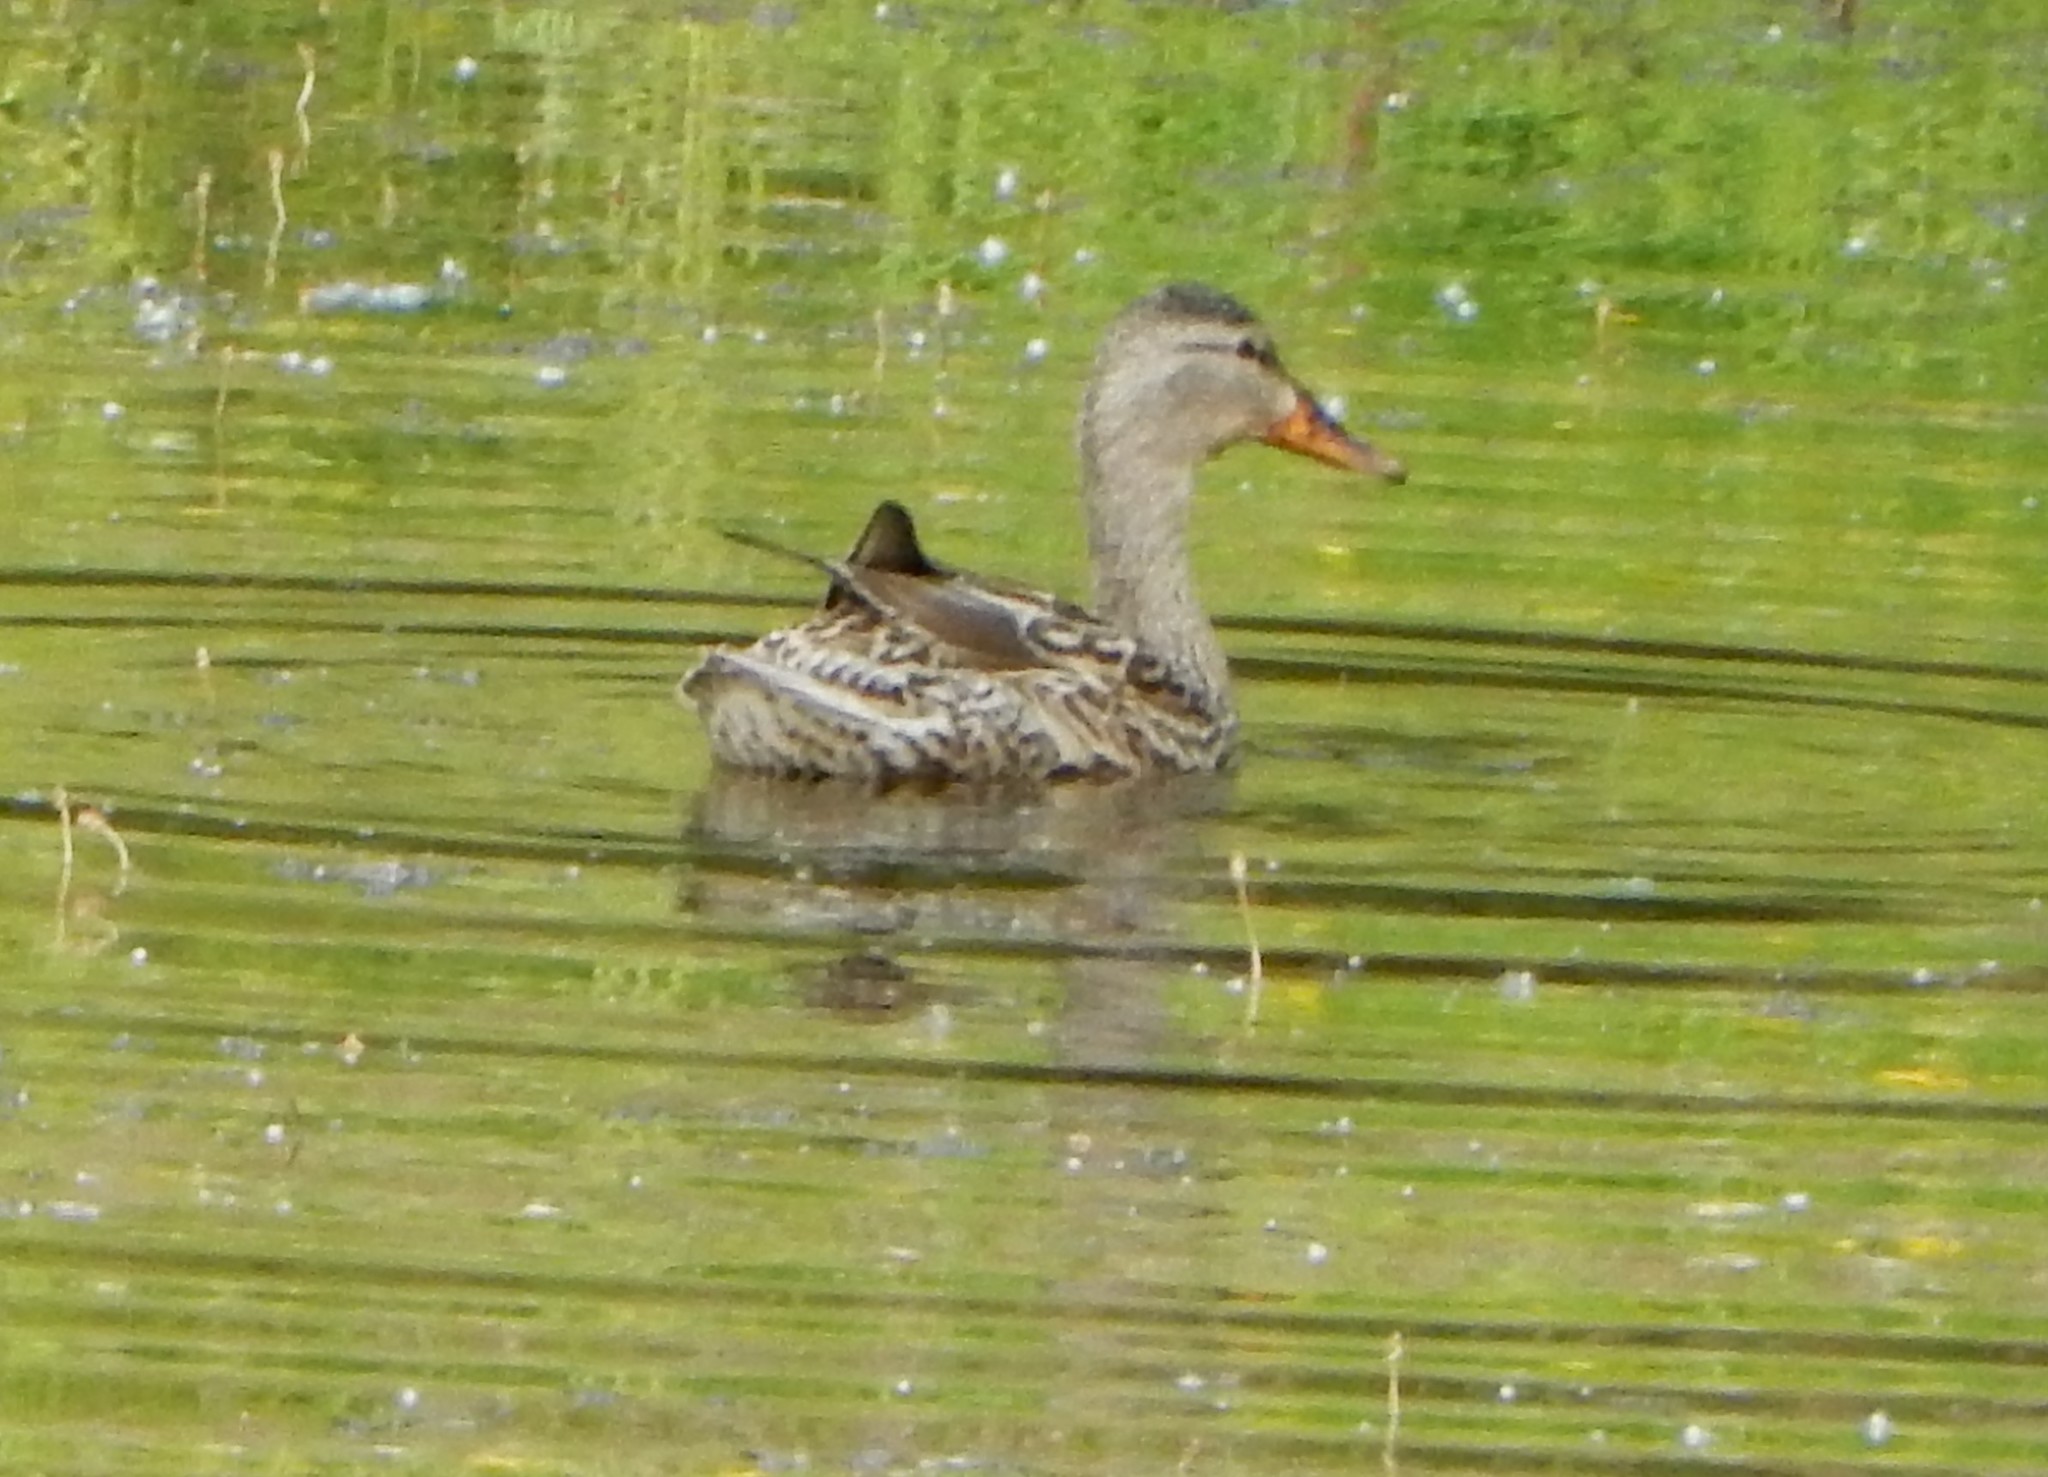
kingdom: Animalia
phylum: Chordata
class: Aves
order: Anseriformes
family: Anatidae
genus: Anas
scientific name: Anas platyrhynchos
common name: Mallard
